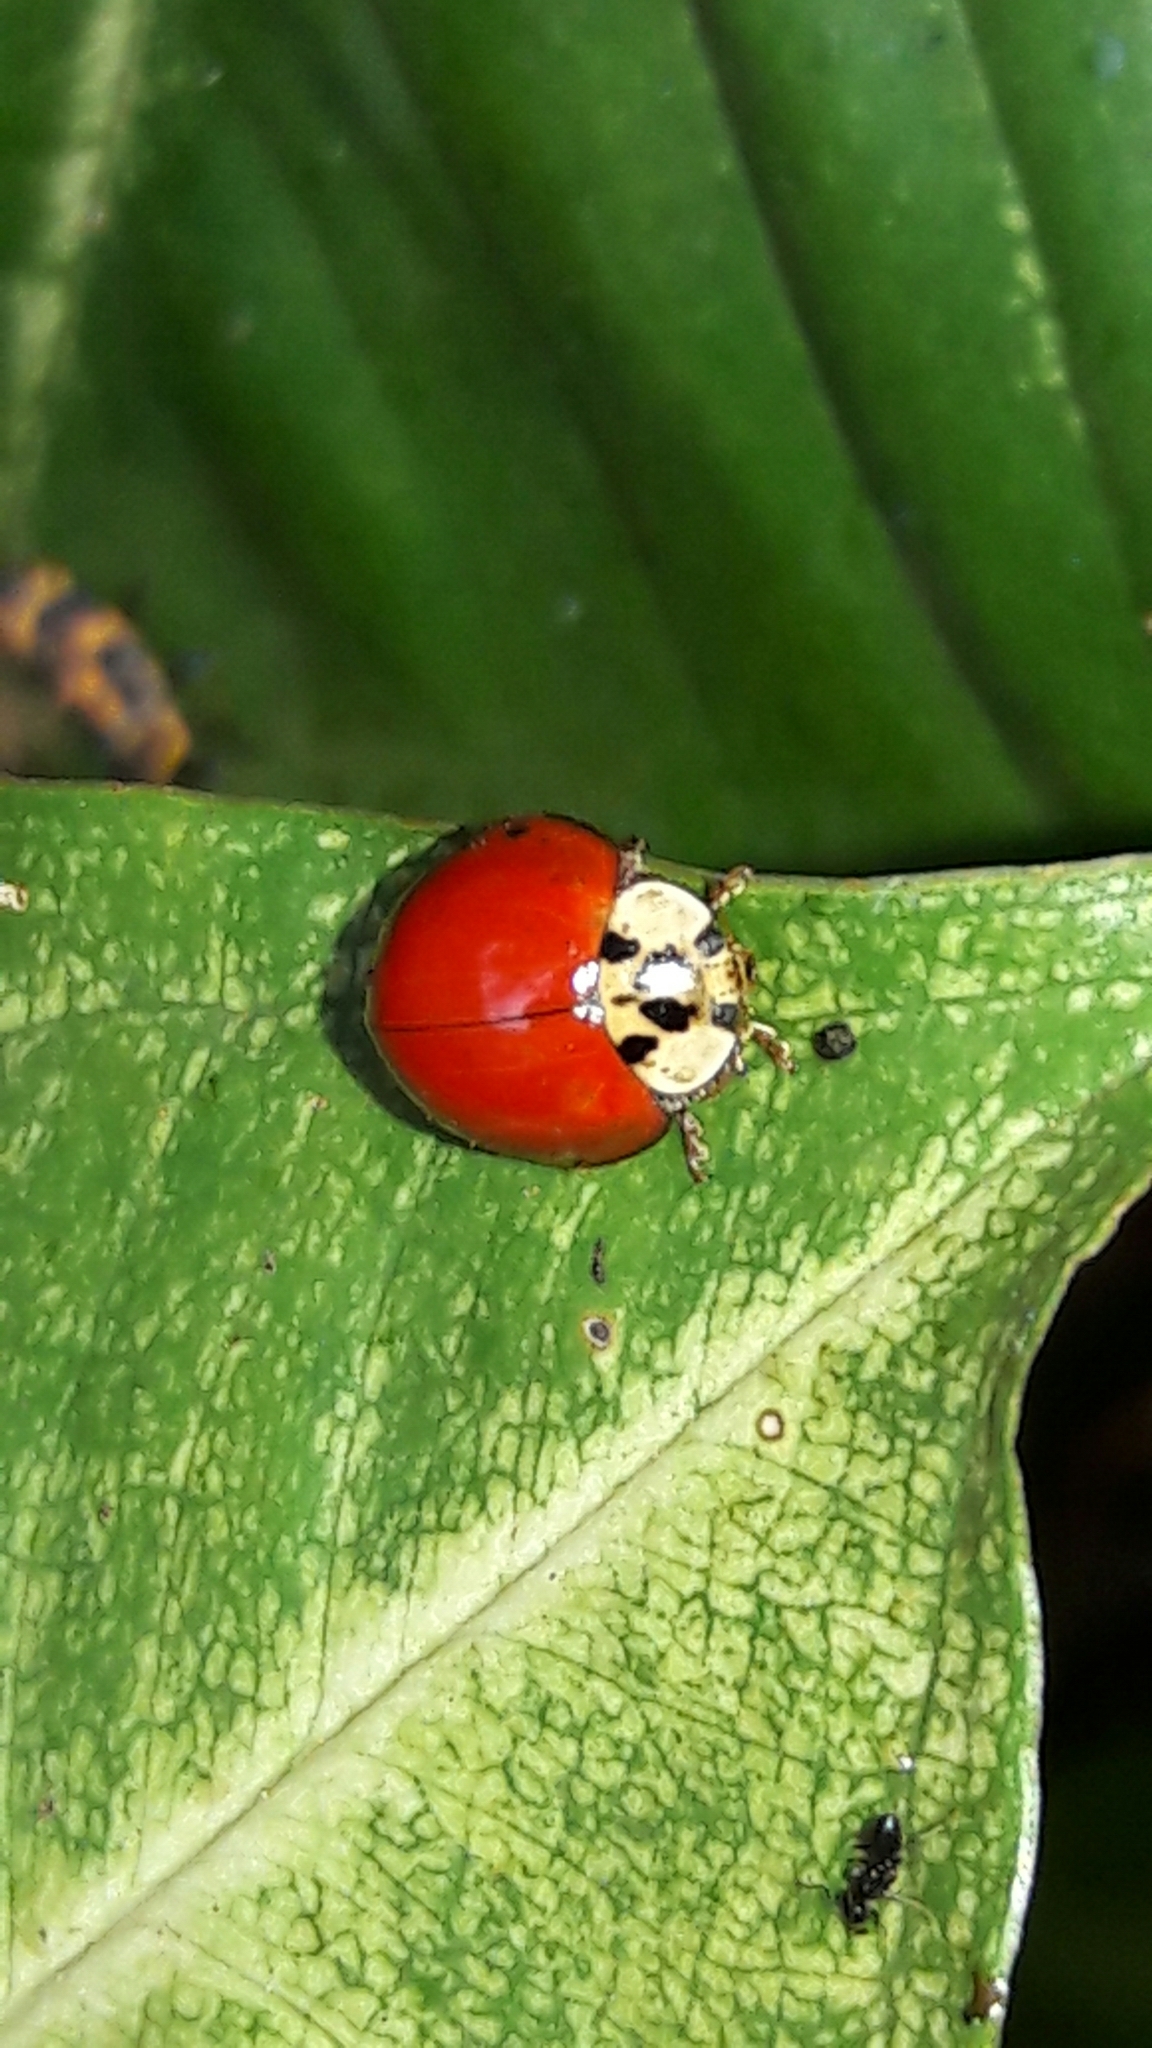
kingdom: Animalia
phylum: Arthropoda
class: Insecta
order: Coleoptera
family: Coccinellidae
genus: Harmonia
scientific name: Harmonia axyridis
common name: Harlequin ladybird
